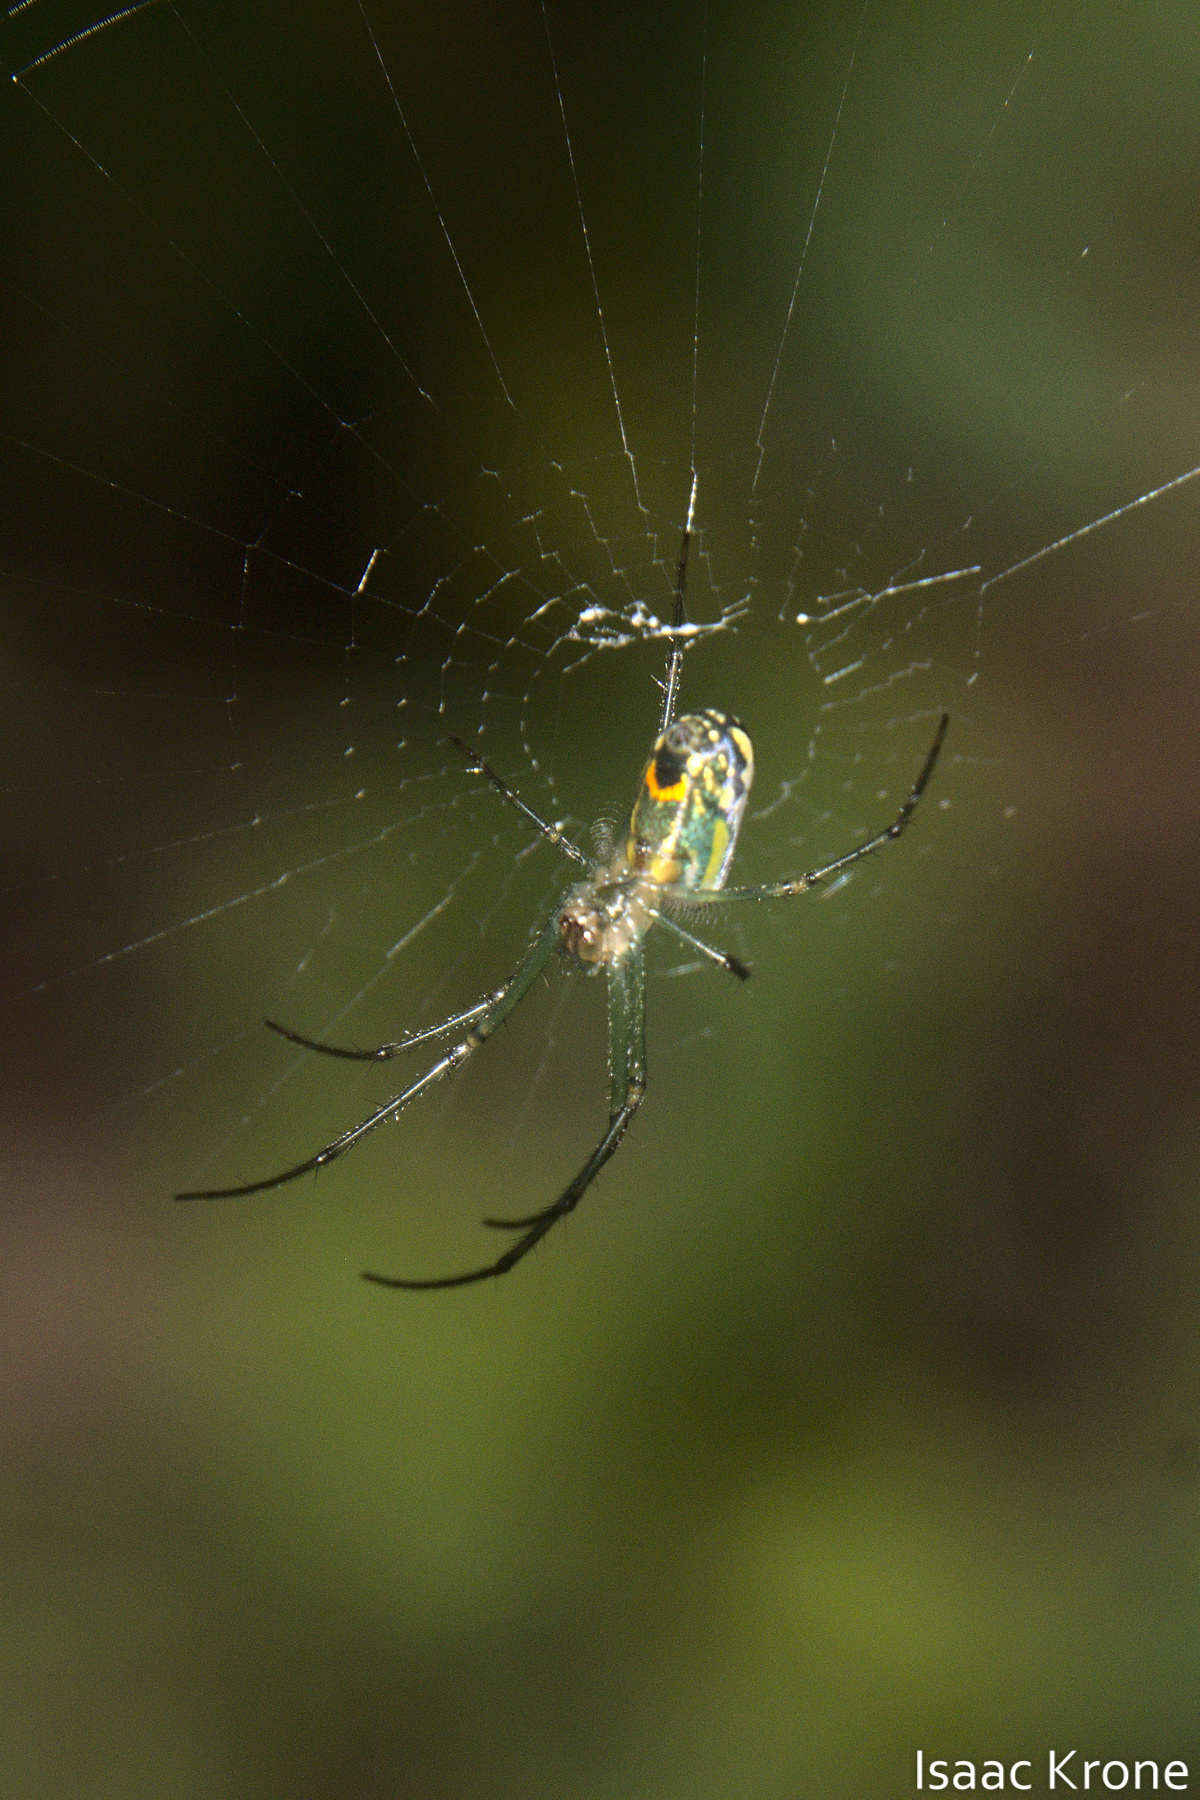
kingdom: Animalia
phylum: Arthropoda
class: Arachnida
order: Araneae
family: Tetragnathidae
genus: Leucauge
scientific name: Leucauge venusta
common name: Longjawed orb weavers
